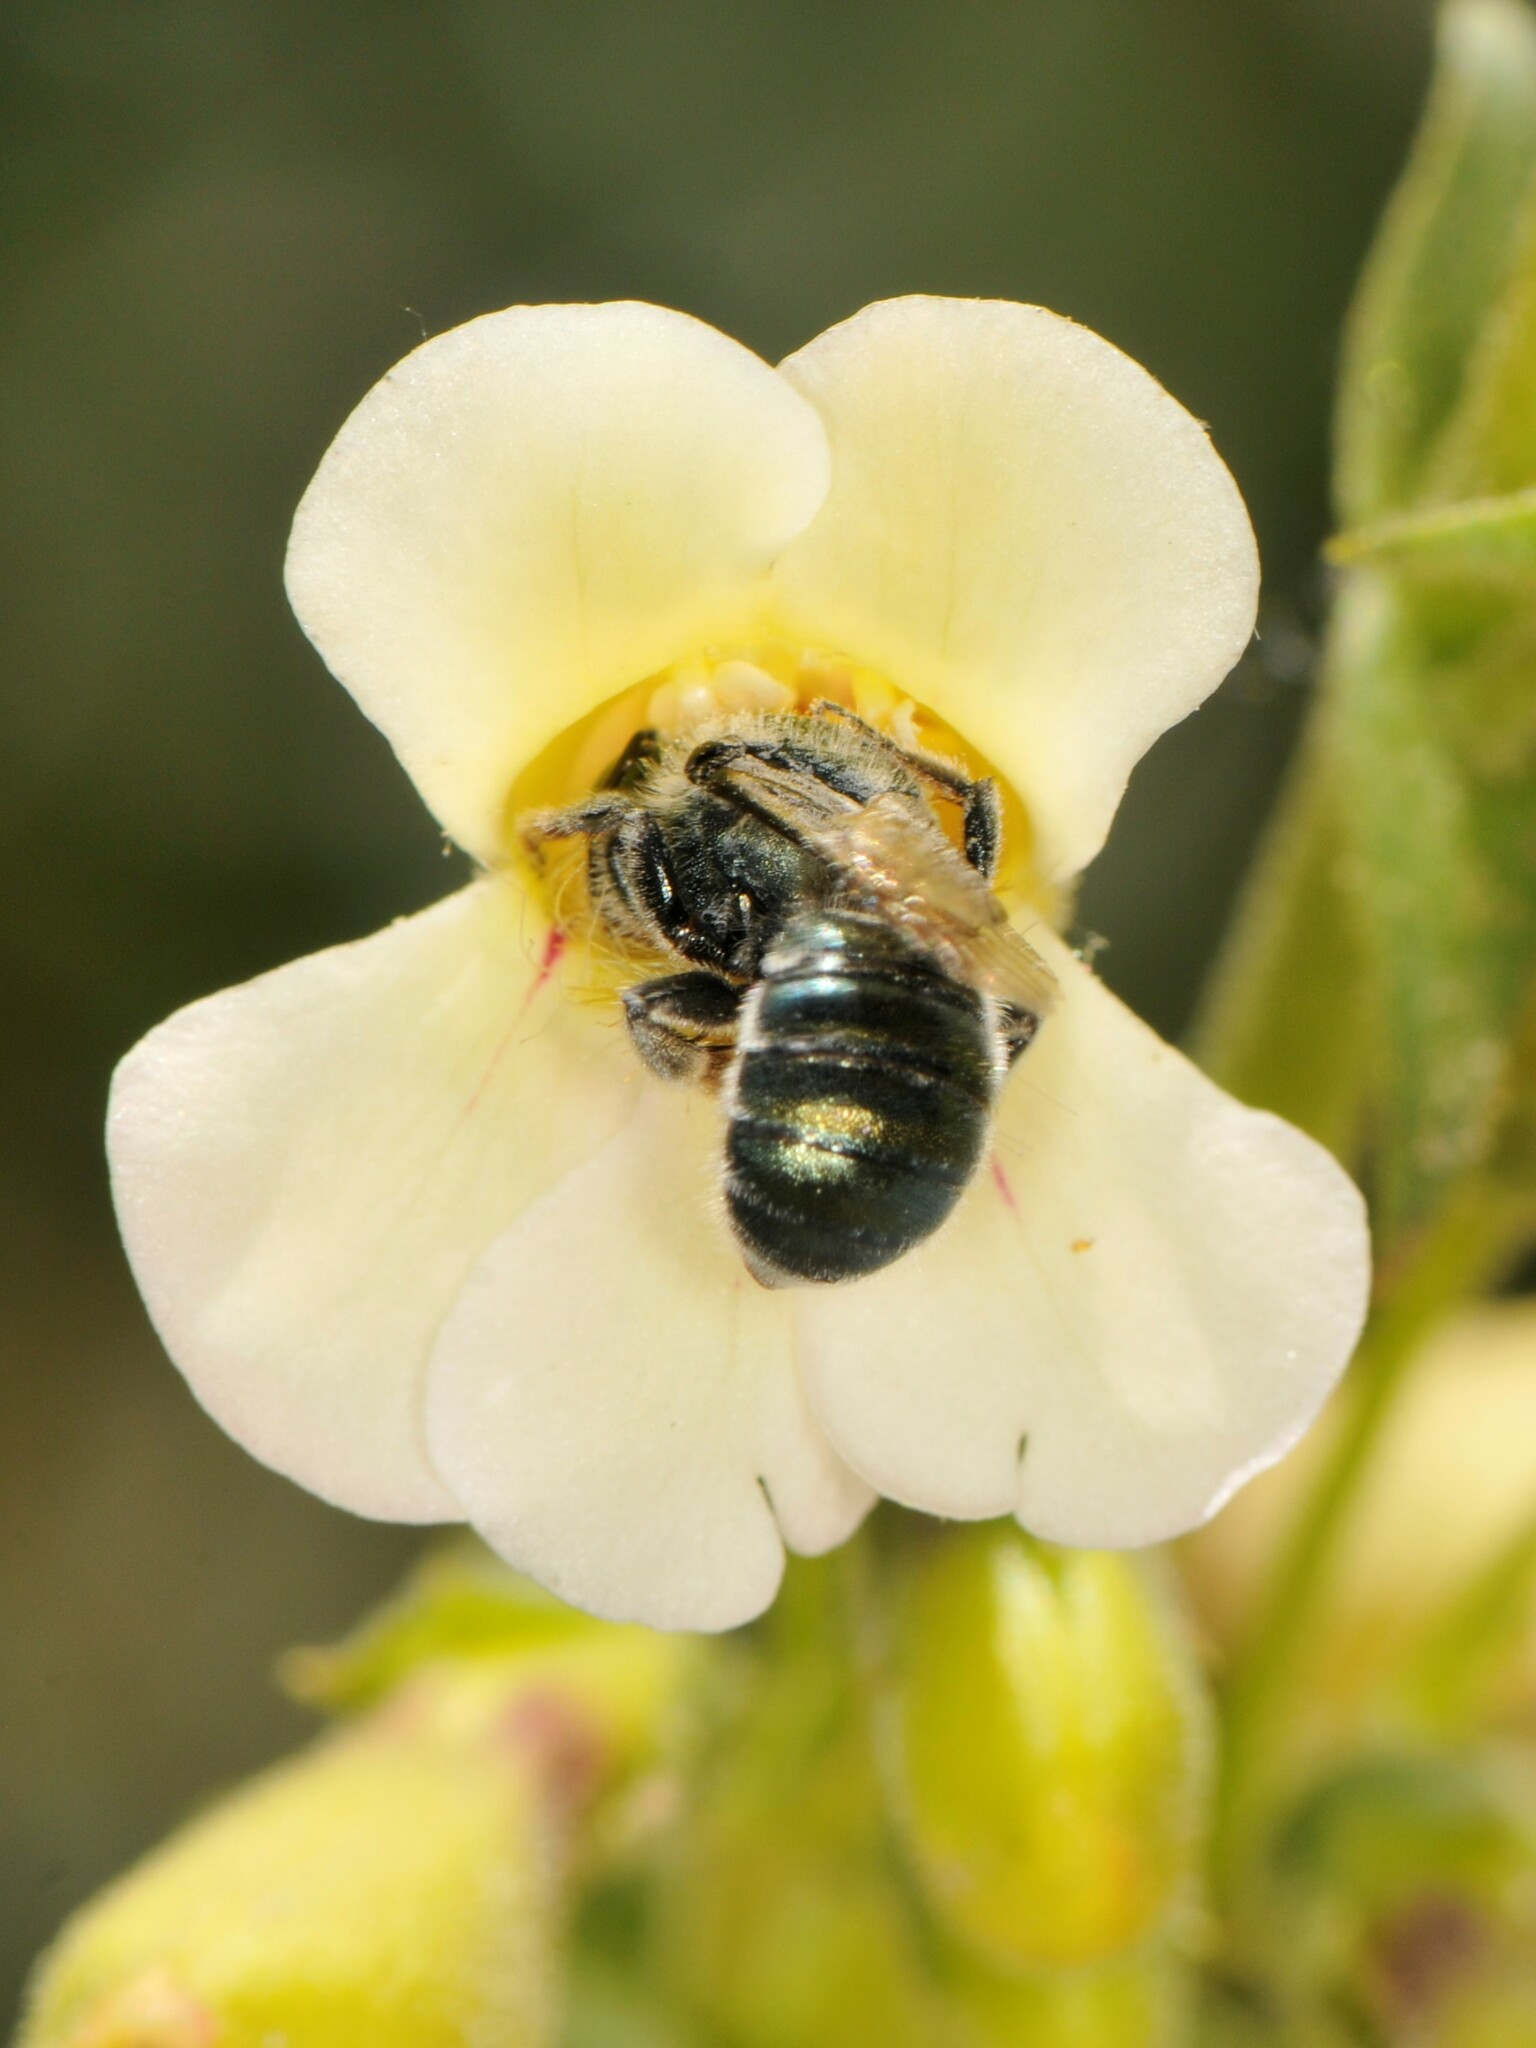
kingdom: Animalia
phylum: Arthropoda
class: Insecta
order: Hymenoptera
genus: Melanosmia
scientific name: Melanosmia
